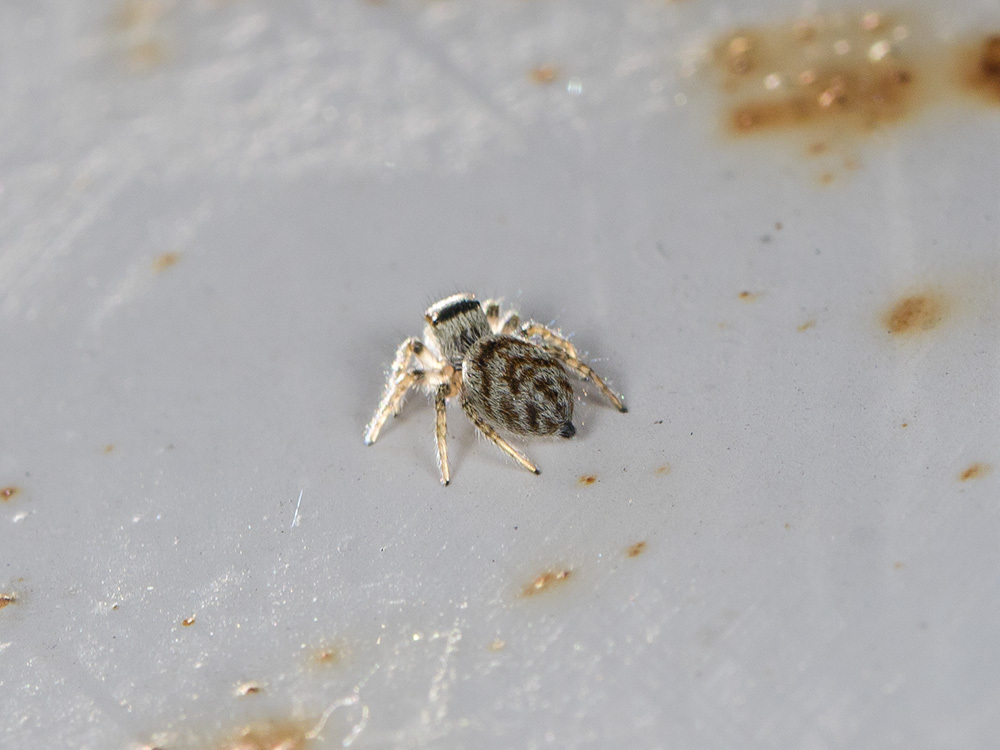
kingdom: Animalia
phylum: Arthropoda
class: Arachnida
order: Araneae
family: Salticidae
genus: Philaeus
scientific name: Philaeus chrysops
